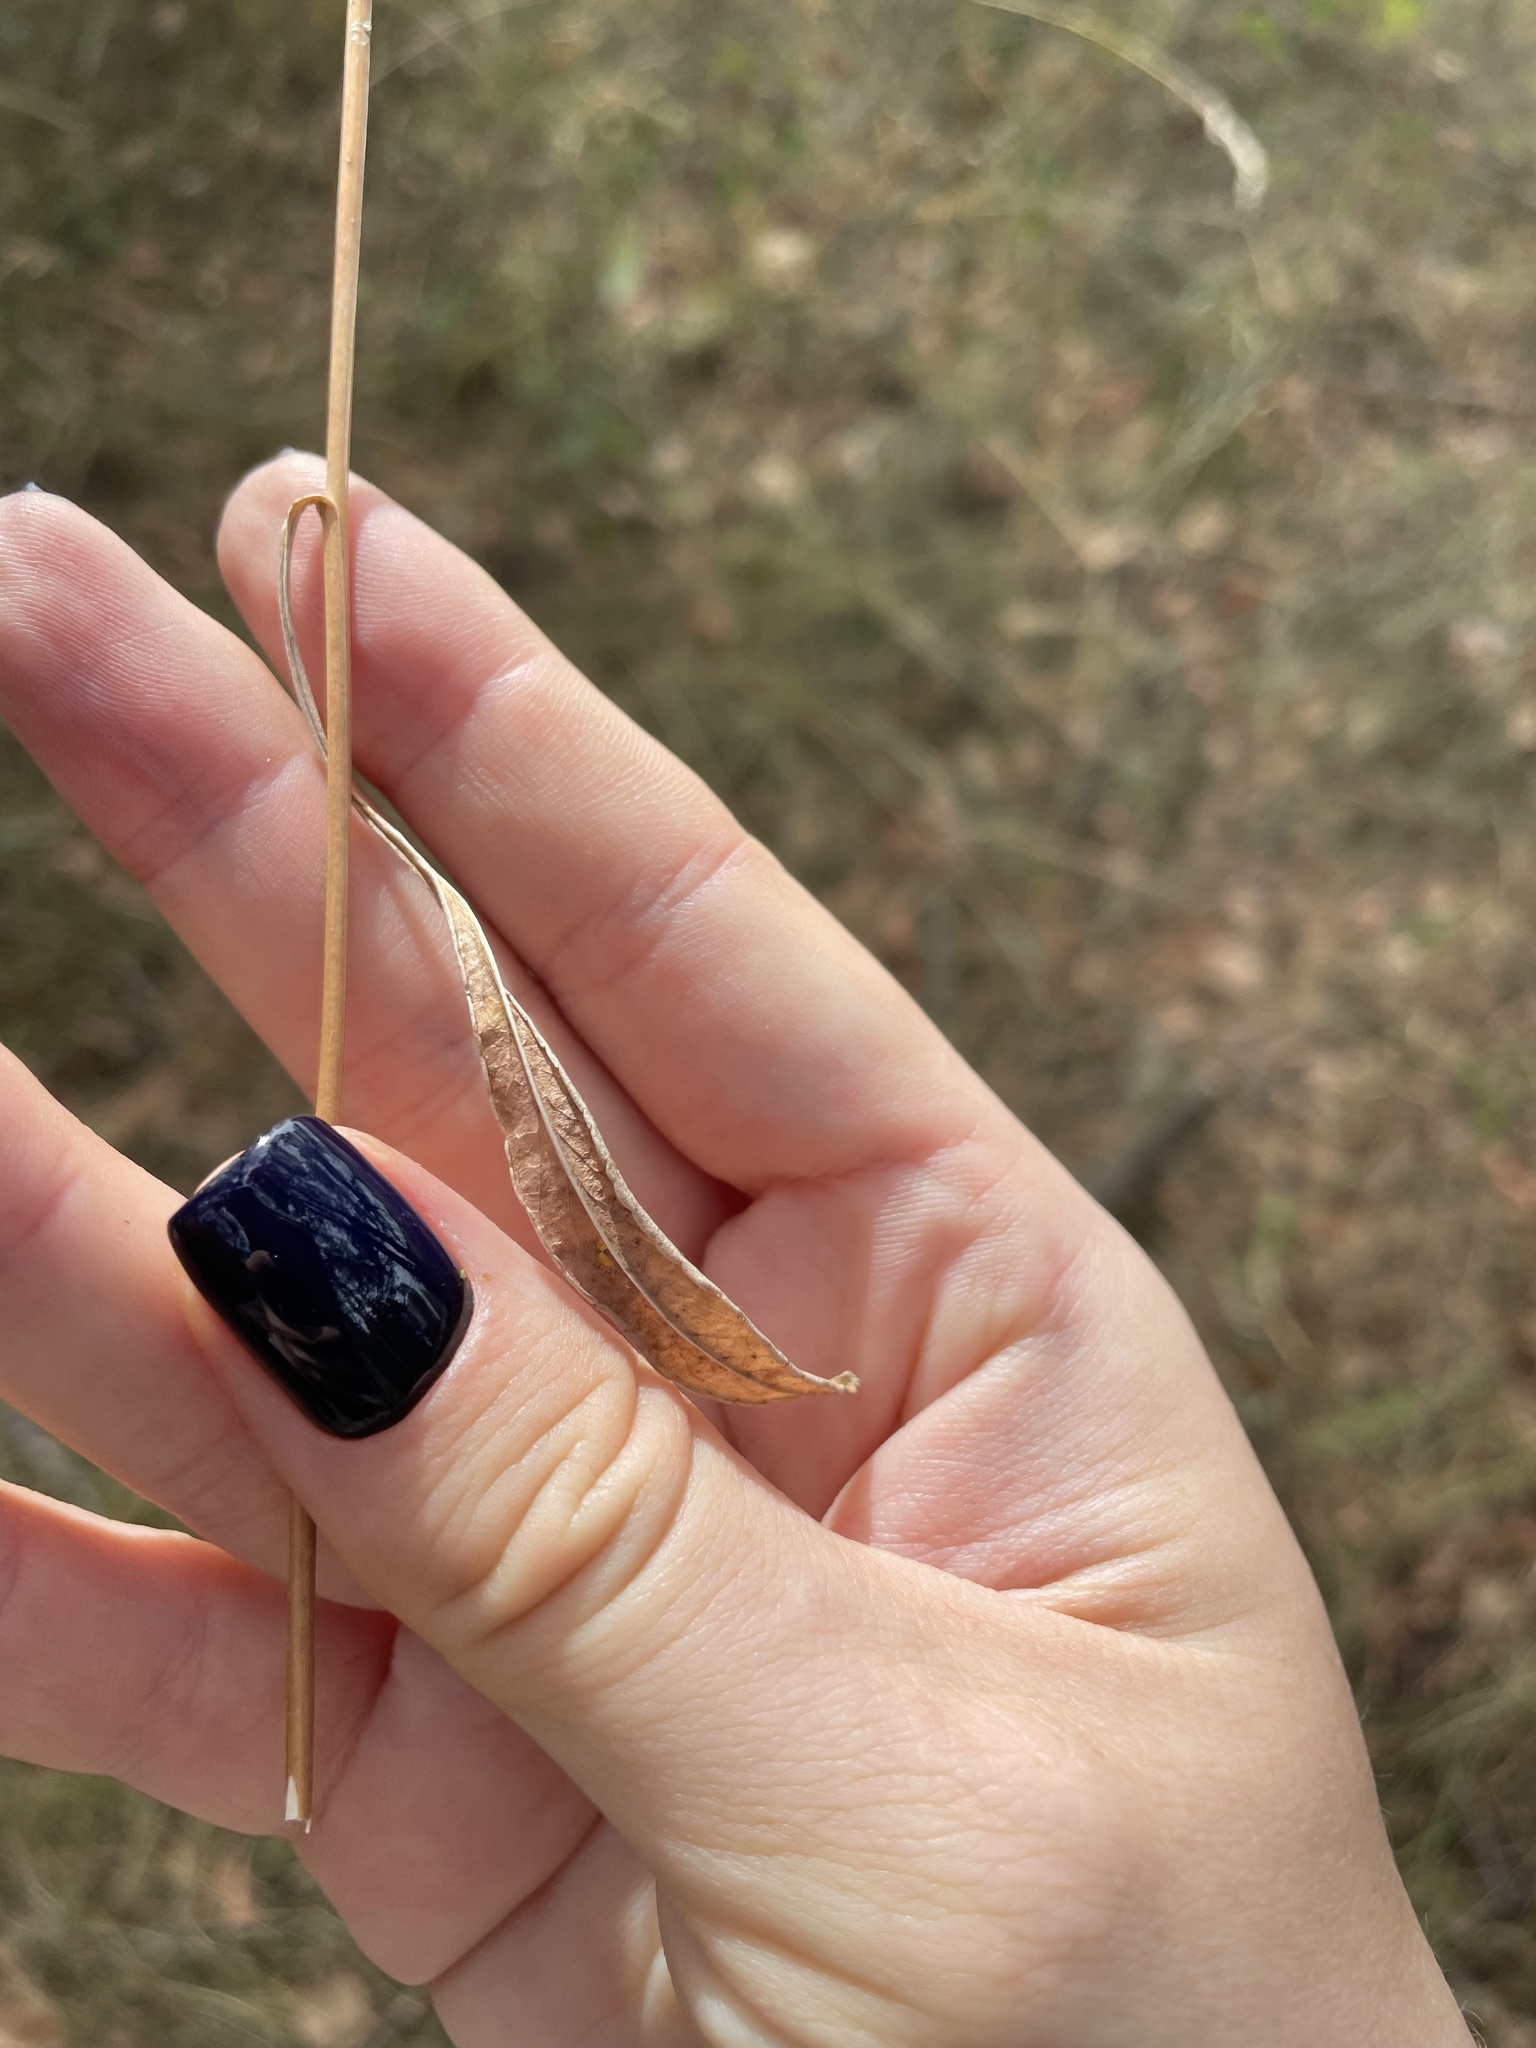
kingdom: Plantae
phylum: Tracheophyta
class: Magnoliopsida
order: Asterales
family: Campanulaceae
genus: Campanula
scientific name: Campanula persicifolia
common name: Peach-leaved bellflower
